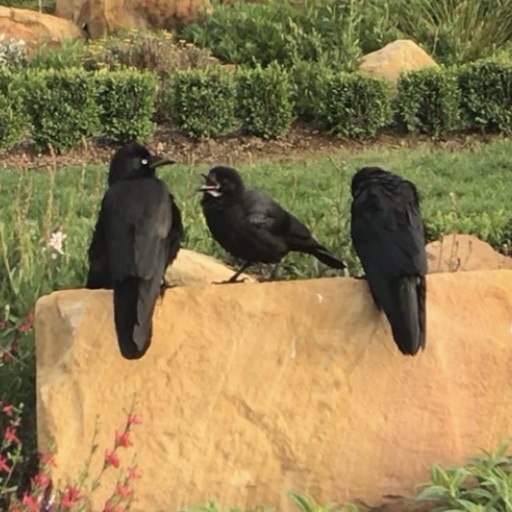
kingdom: Animalia
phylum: Chordata
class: Aves
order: Passeriformes
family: Corvidae
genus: Corvus
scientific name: Corvus mellori
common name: Little raven
